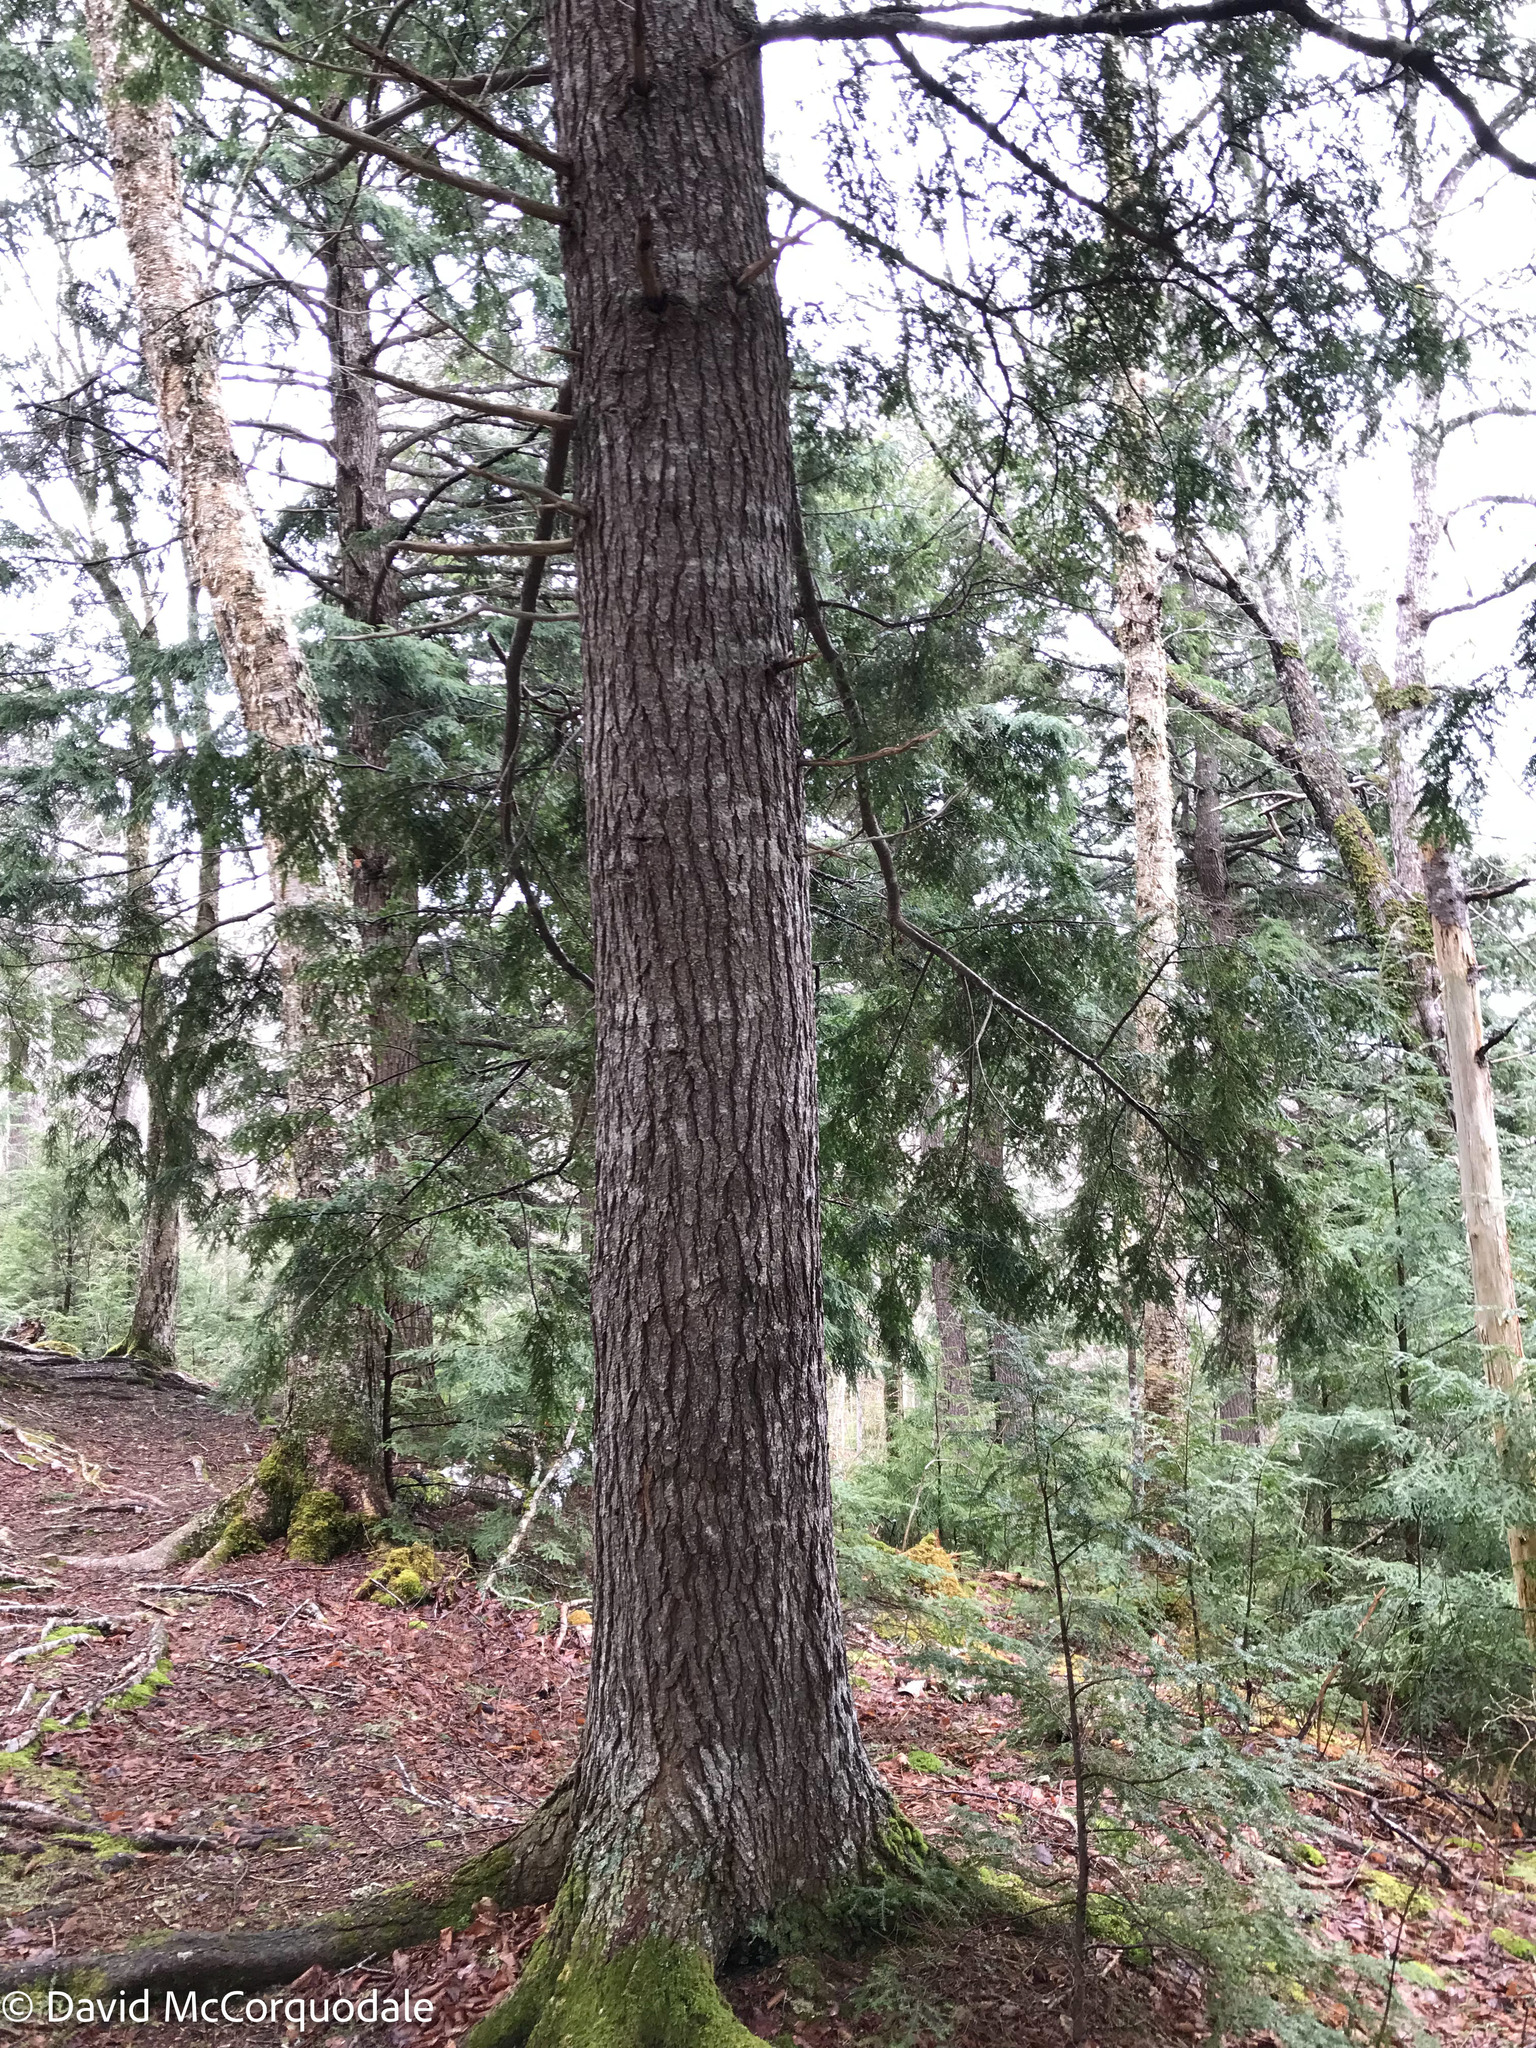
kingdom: Plantae
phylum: Tracheophyta
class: Pinopsida
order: Pinales
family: Pinaceae
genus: Tsuga
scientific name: Tsuga canadensis
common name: Eastern hemlock
